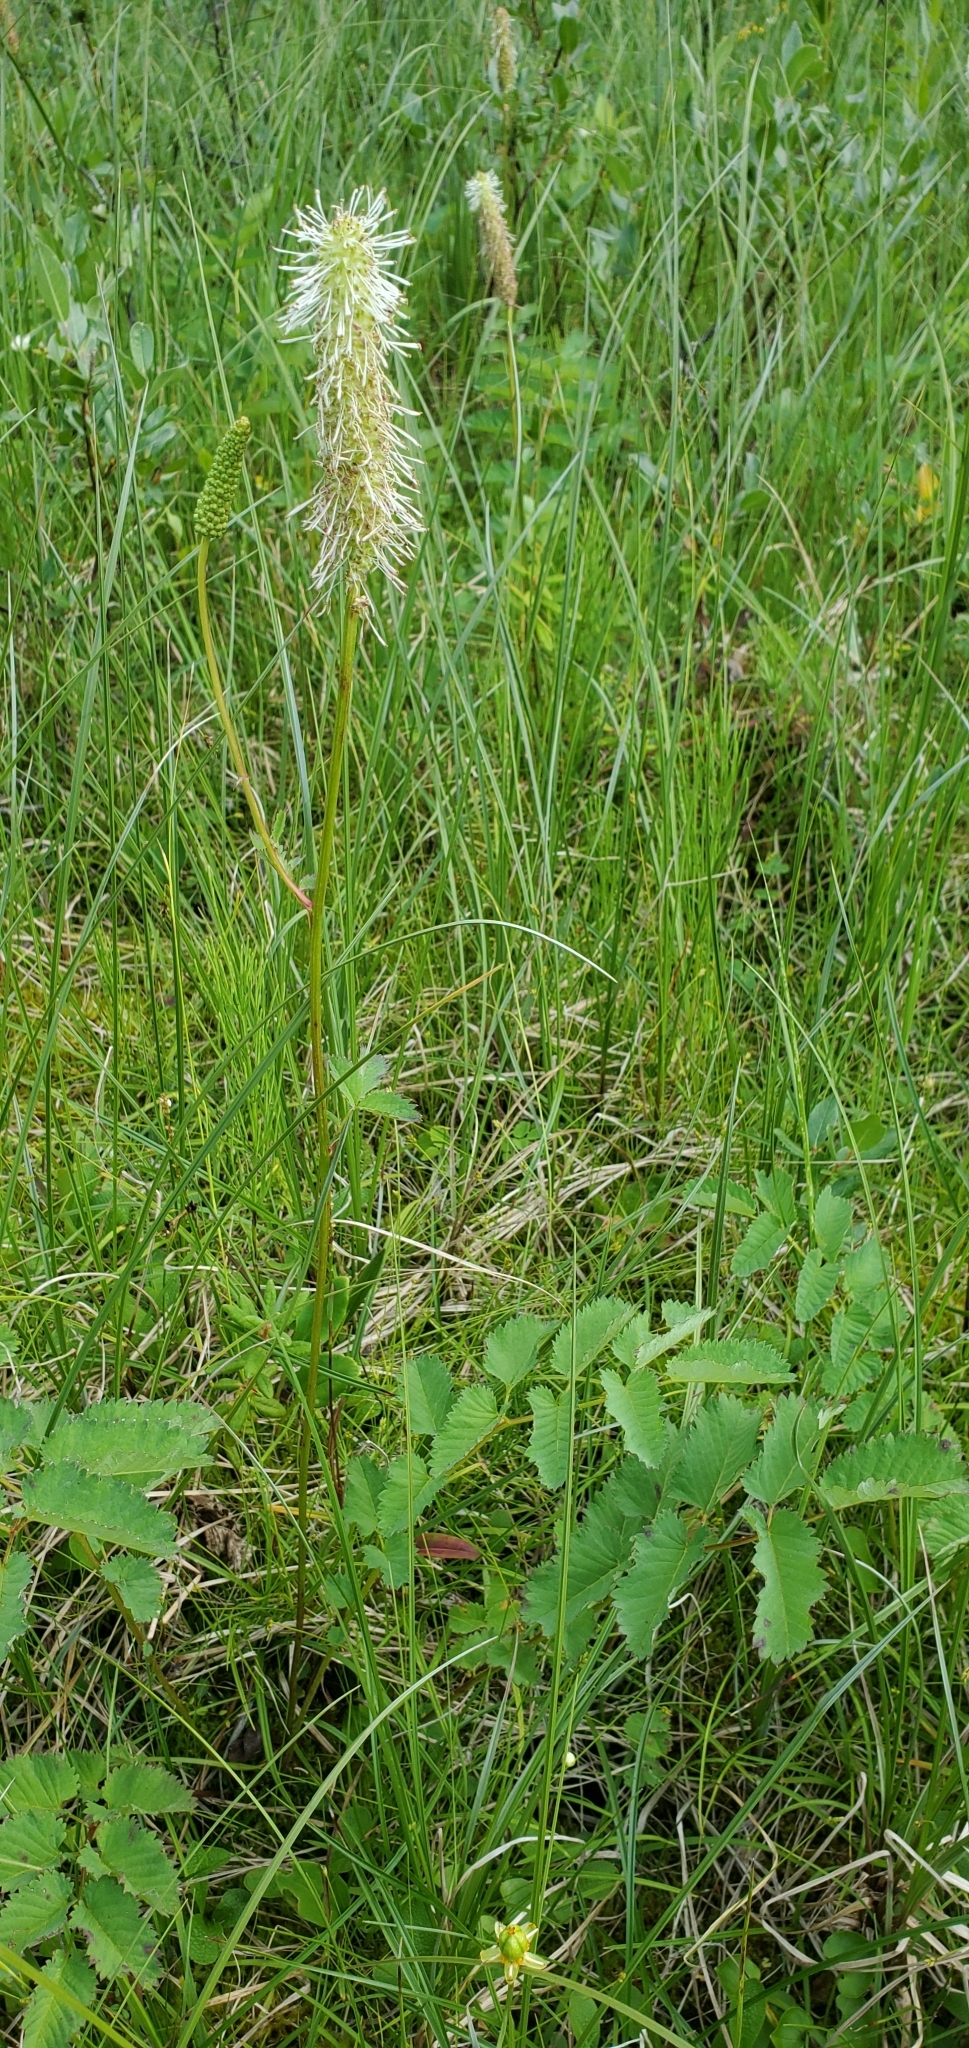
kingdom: Plantae
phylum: Tracheophyta
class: Magnoliopsida
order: Rosales
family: Rosaceae
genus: Sanguisorba
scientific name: Sanguisorba stipulata
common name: Sitka burnet
